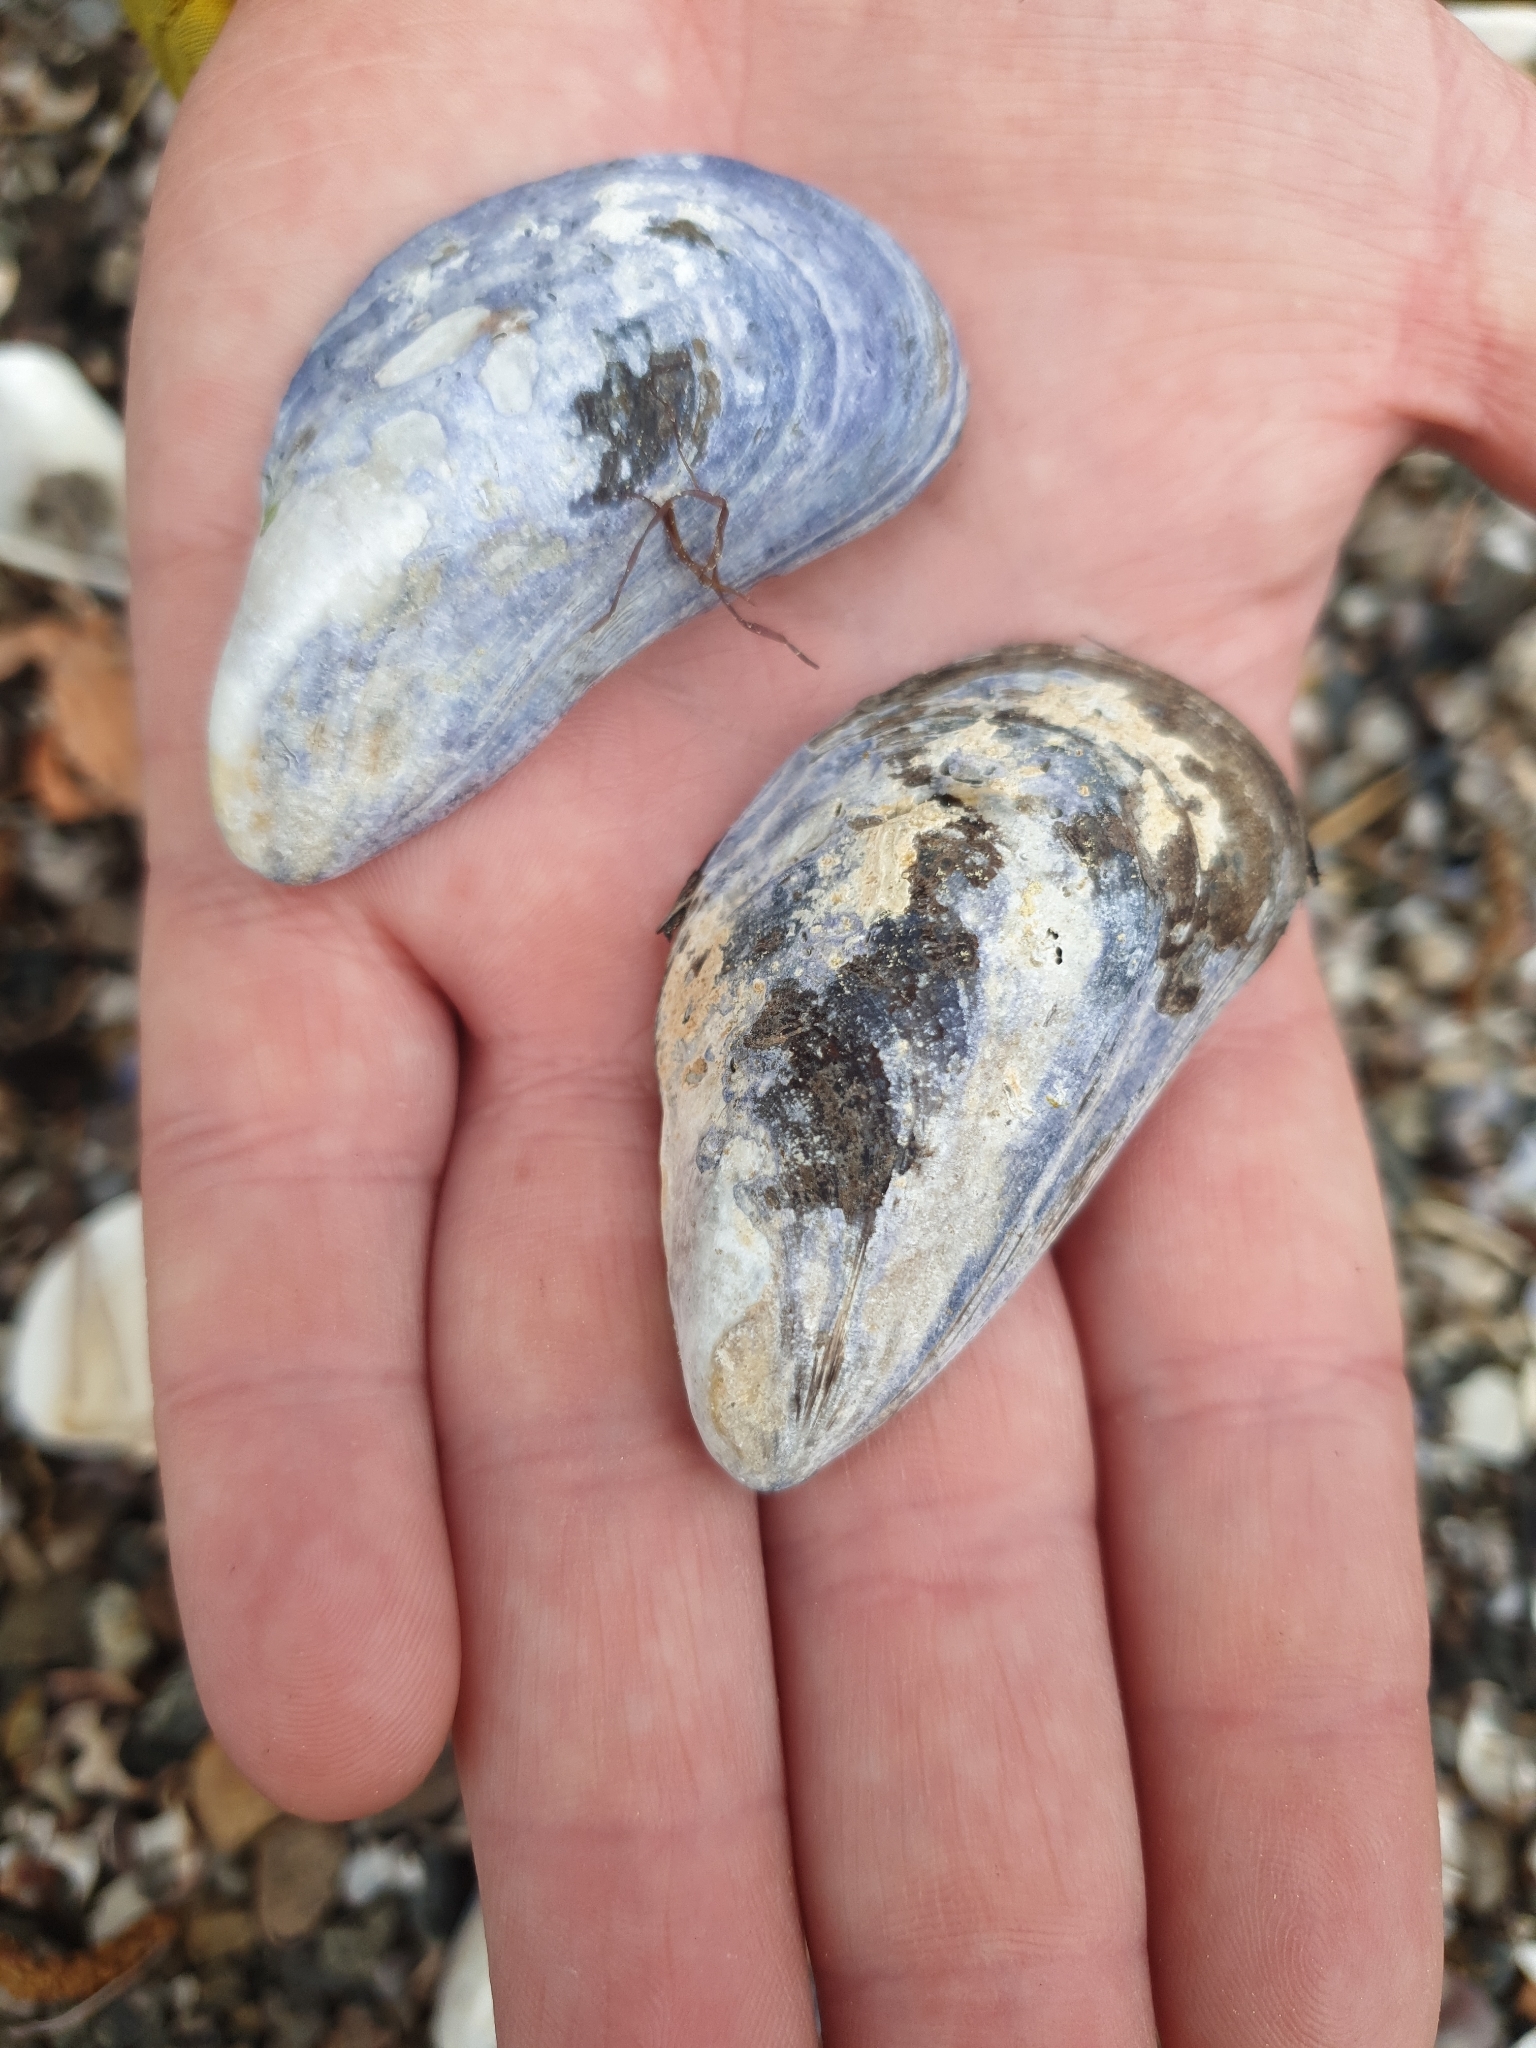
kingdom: Animalia
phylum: Mollusca
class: Bivalvia
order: Mytilida
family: Mytilidae
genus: Mytilus
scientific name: Mytilus edulis
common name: Blue mussel
